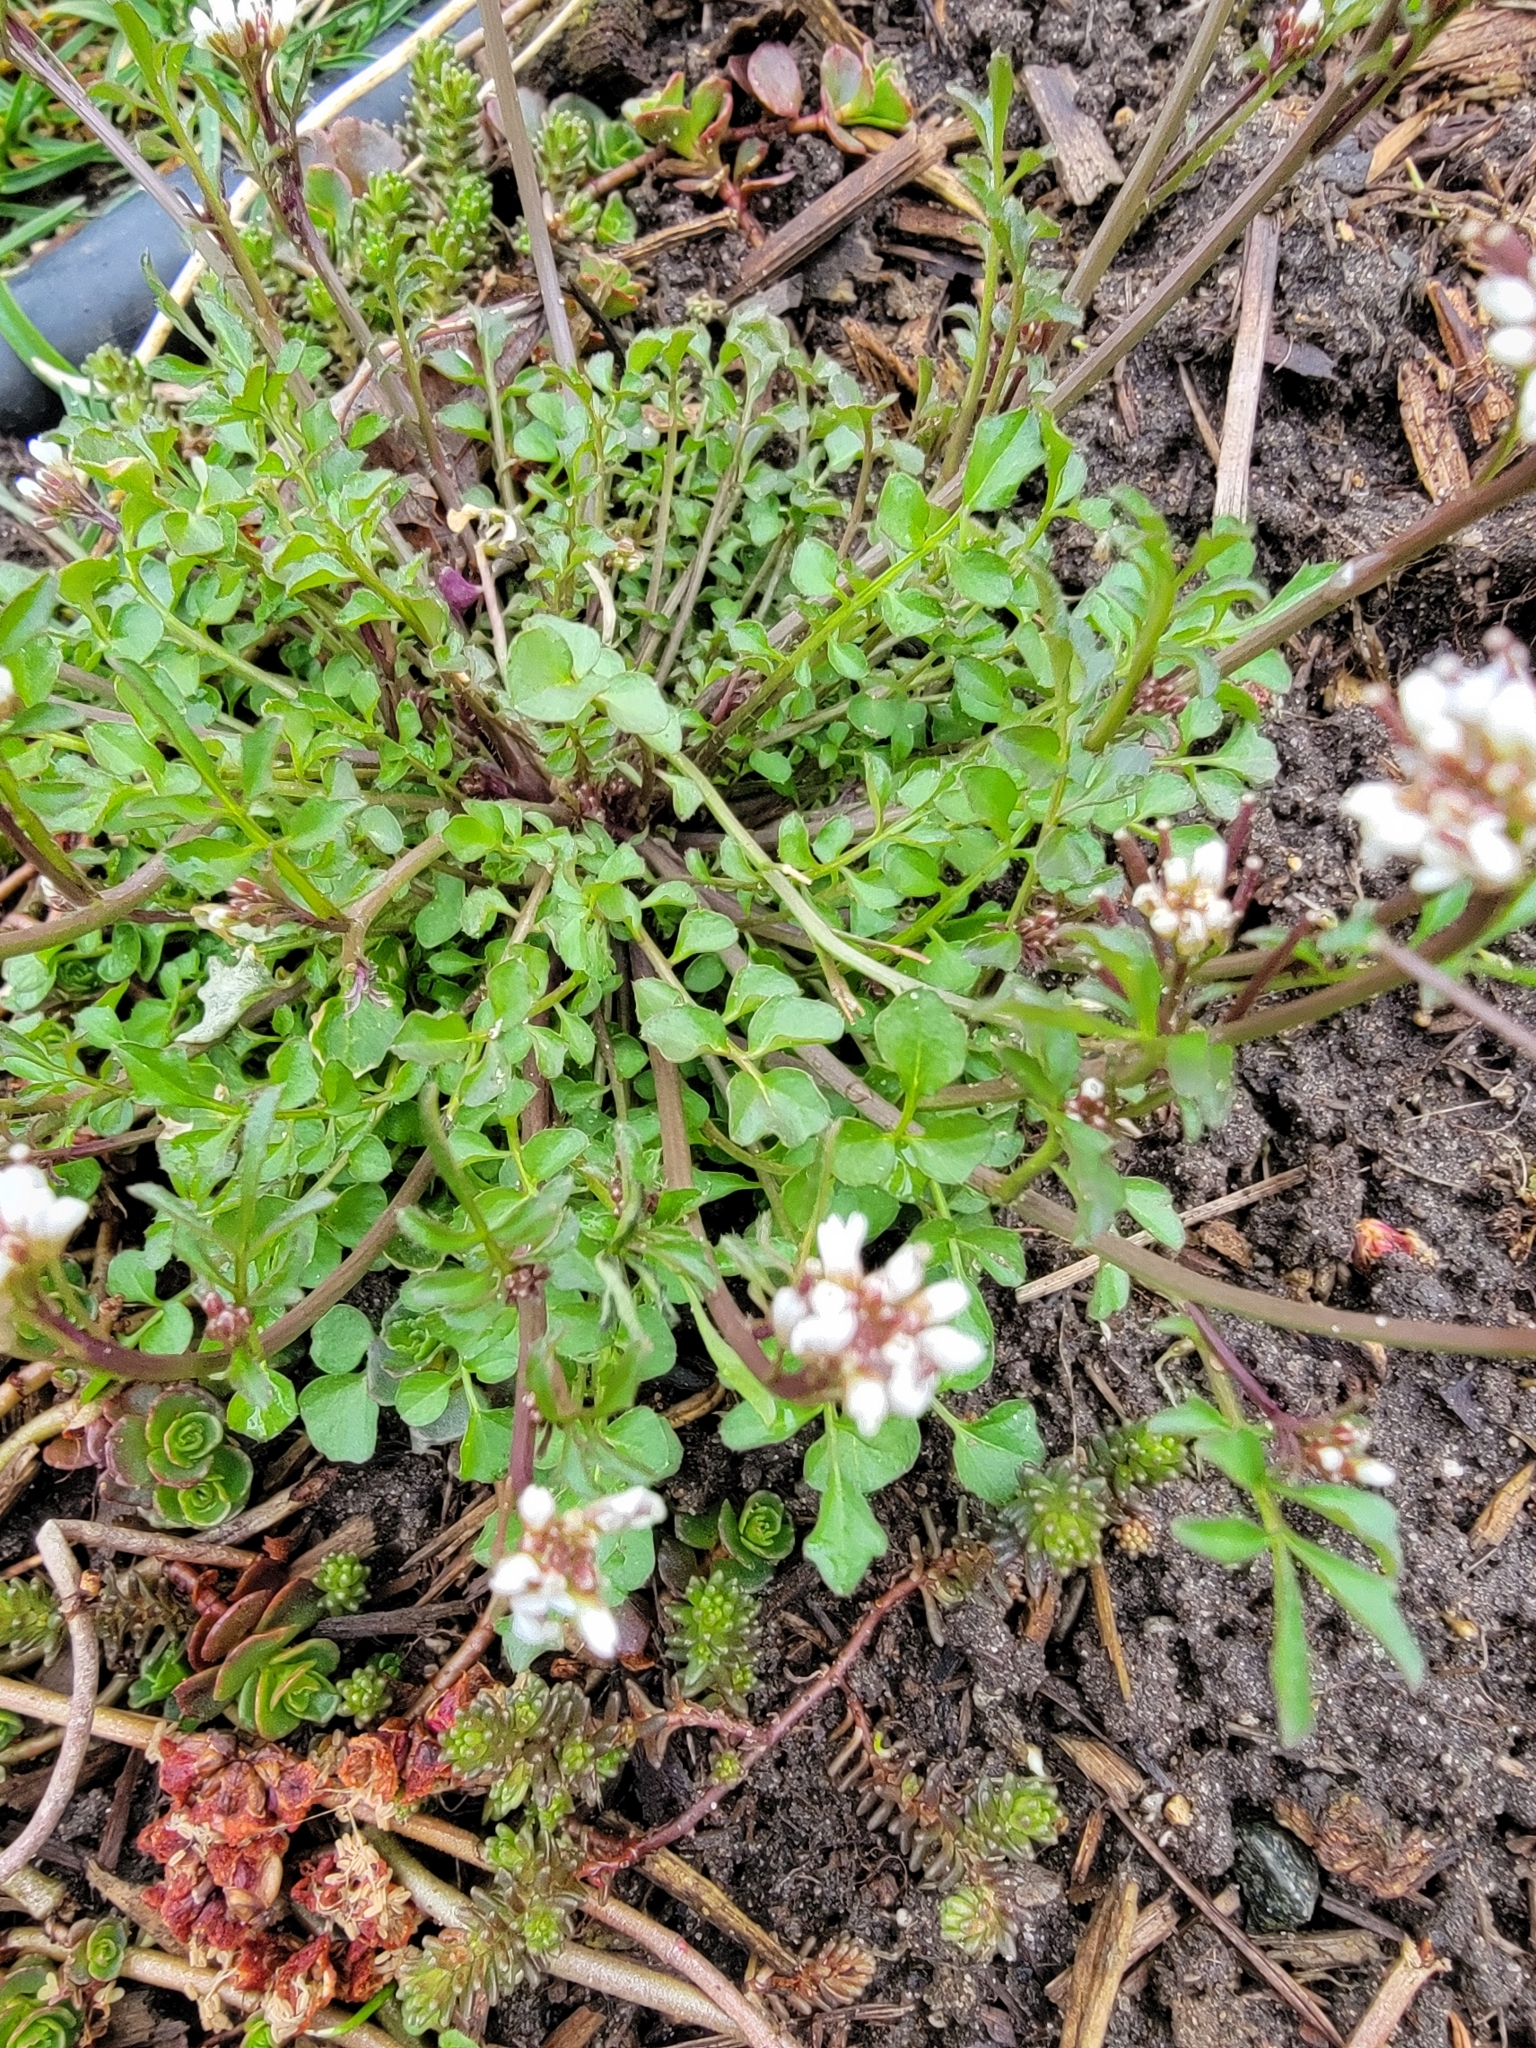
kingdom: Plantae
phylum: Tracheophyta
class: Magnoliopsida
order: Brassicales
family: Brassicaceae
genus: Cardamine
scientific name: Cardamine hirsuta
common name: Hairy bittercress
